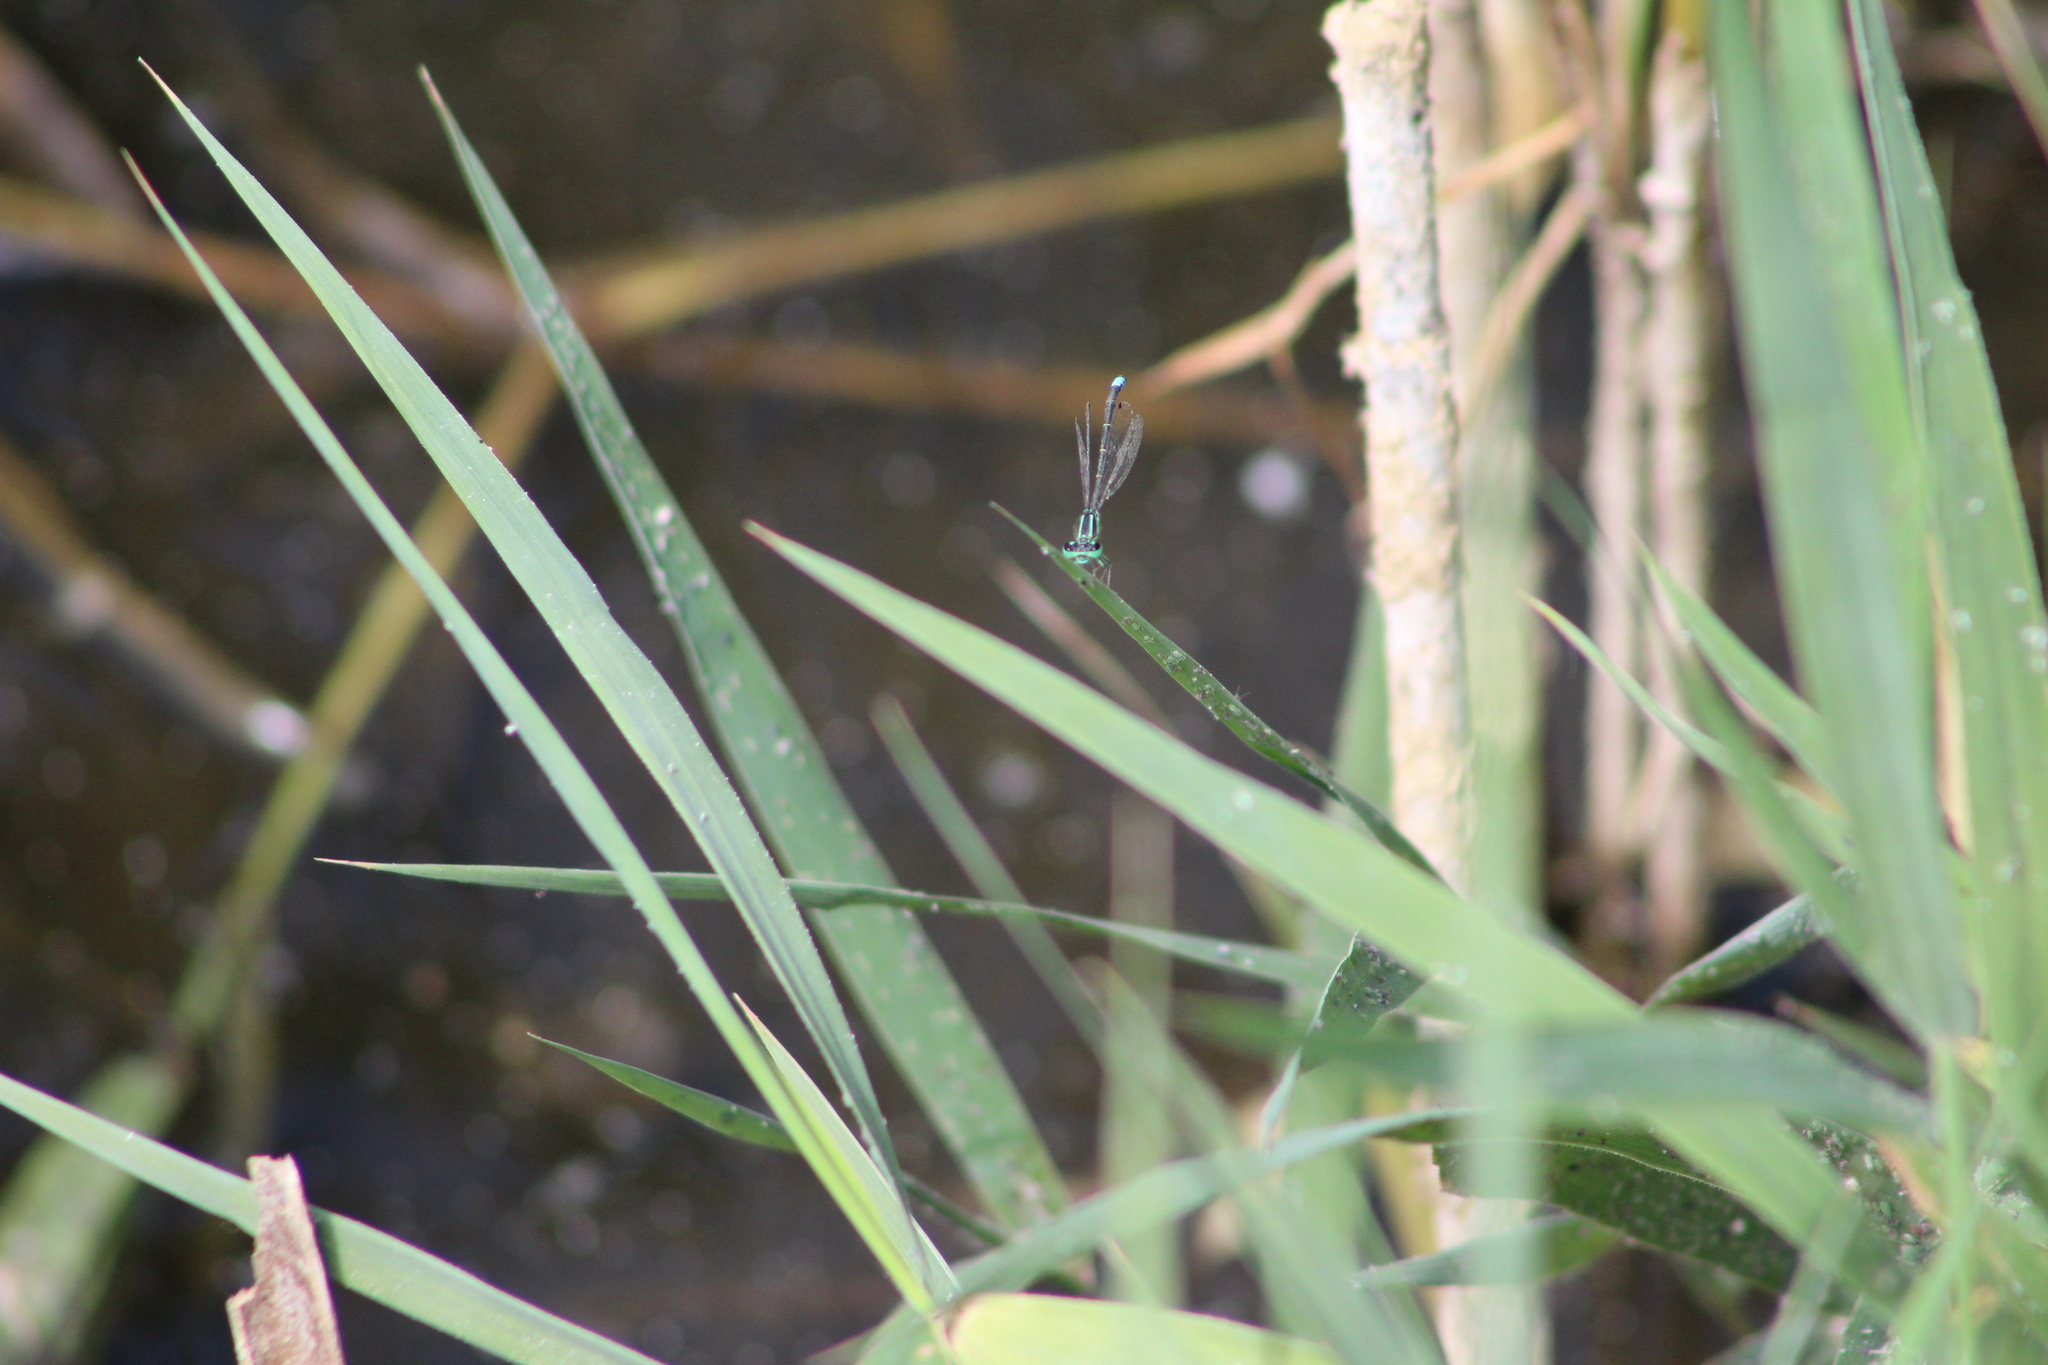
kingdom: Animalia
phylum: Arthropoda
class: Insecta
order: Odonata
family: Coenagrionidae
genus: Ischnura
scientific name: Ischnura perparva
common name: Western forktail
